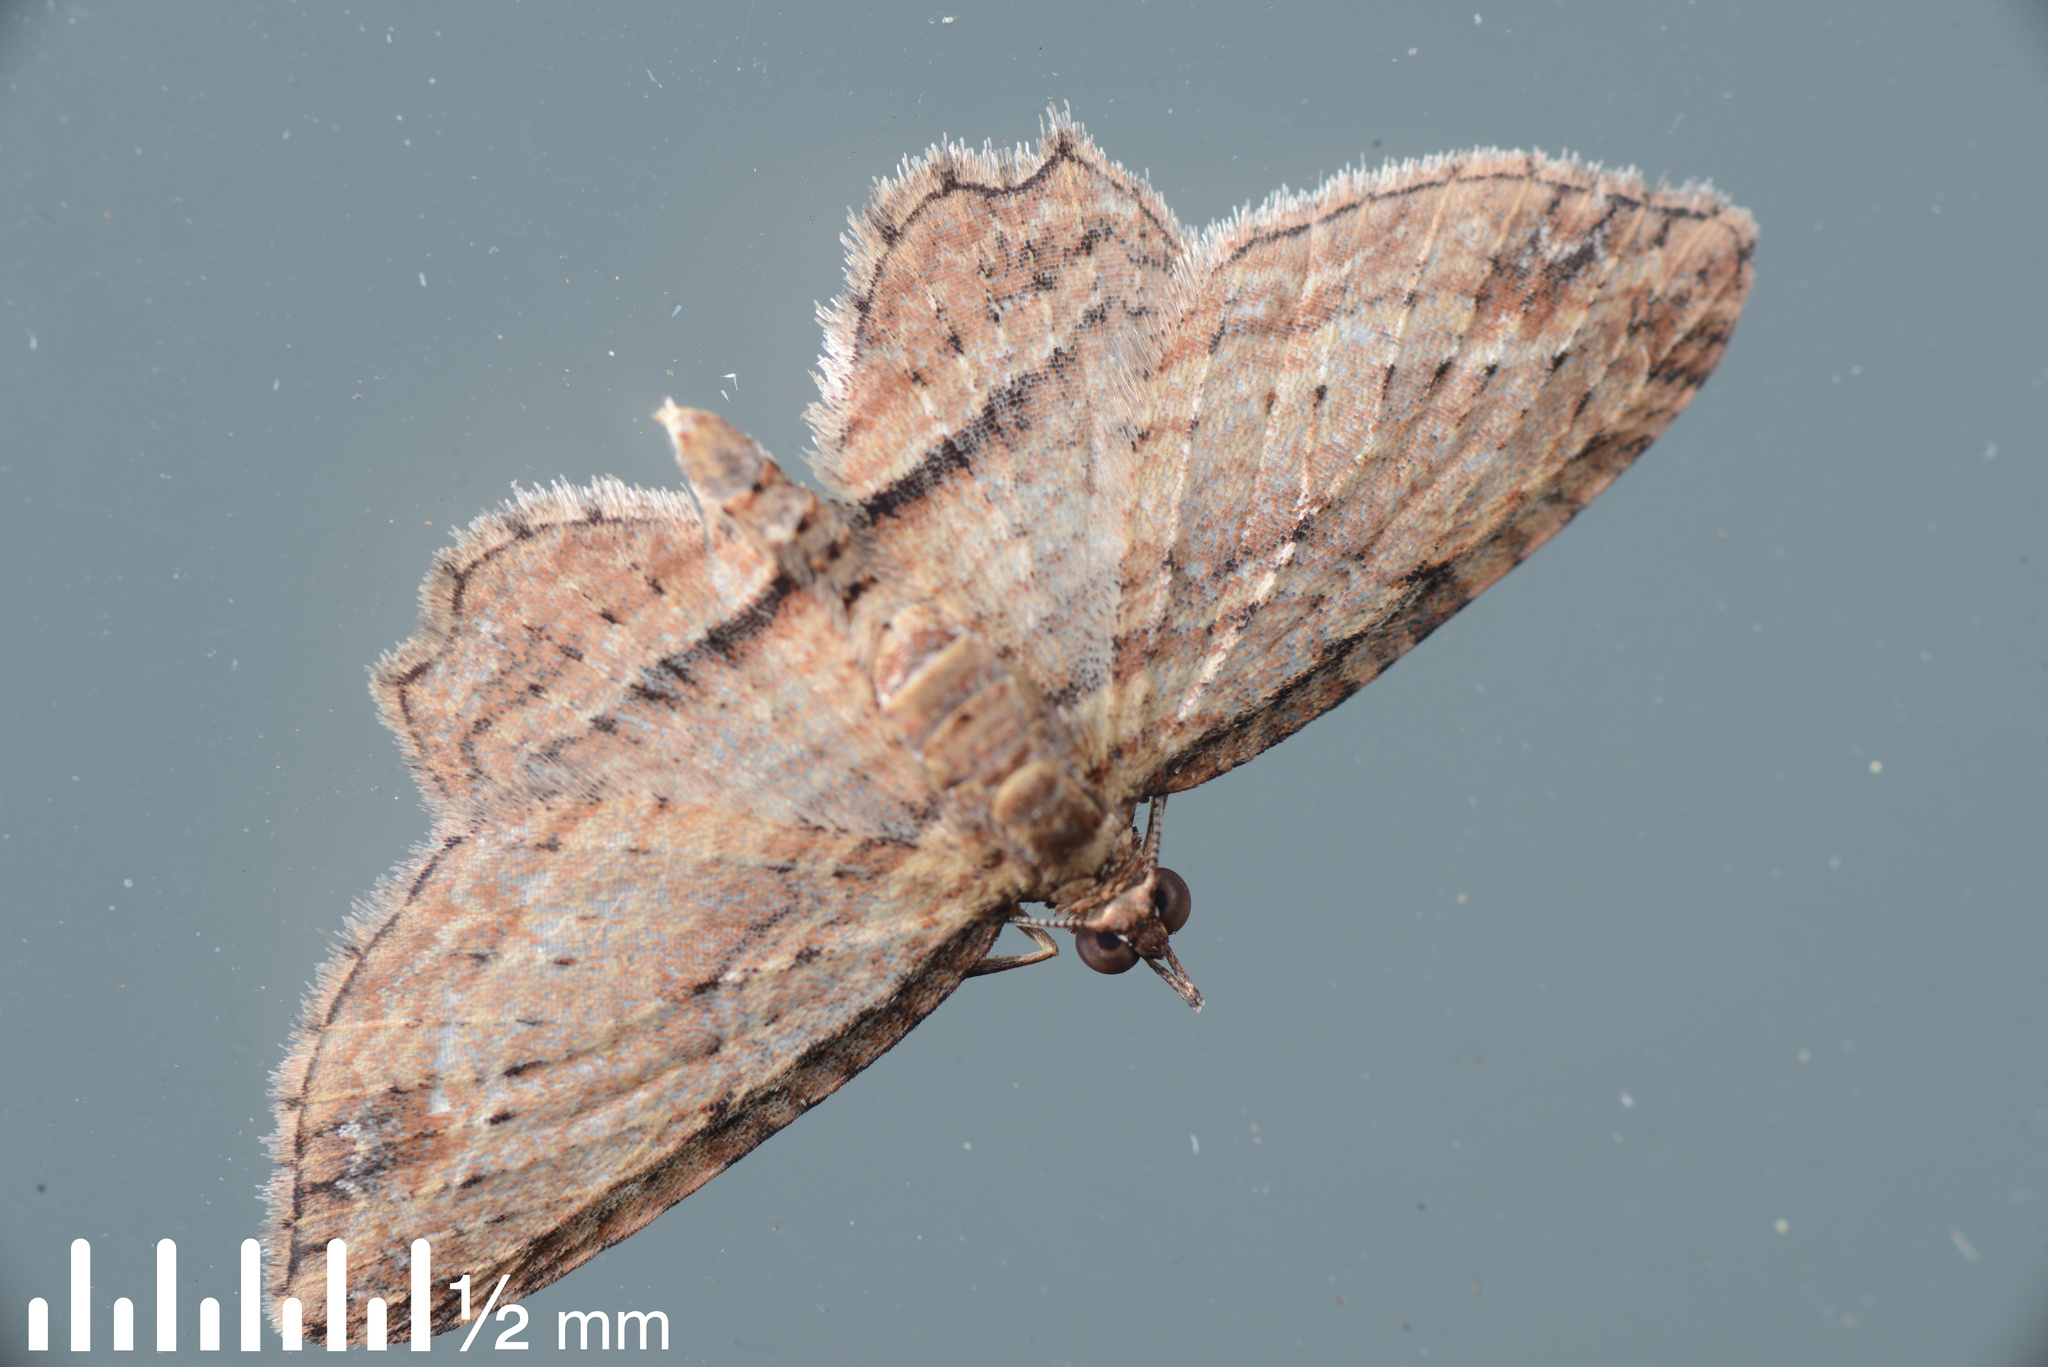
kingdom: Animalia
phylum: Arthropoda
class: Insecta
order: Lepidoptera
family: Geometridae
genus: Chloroclystis
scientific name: Chloroclystis filata
